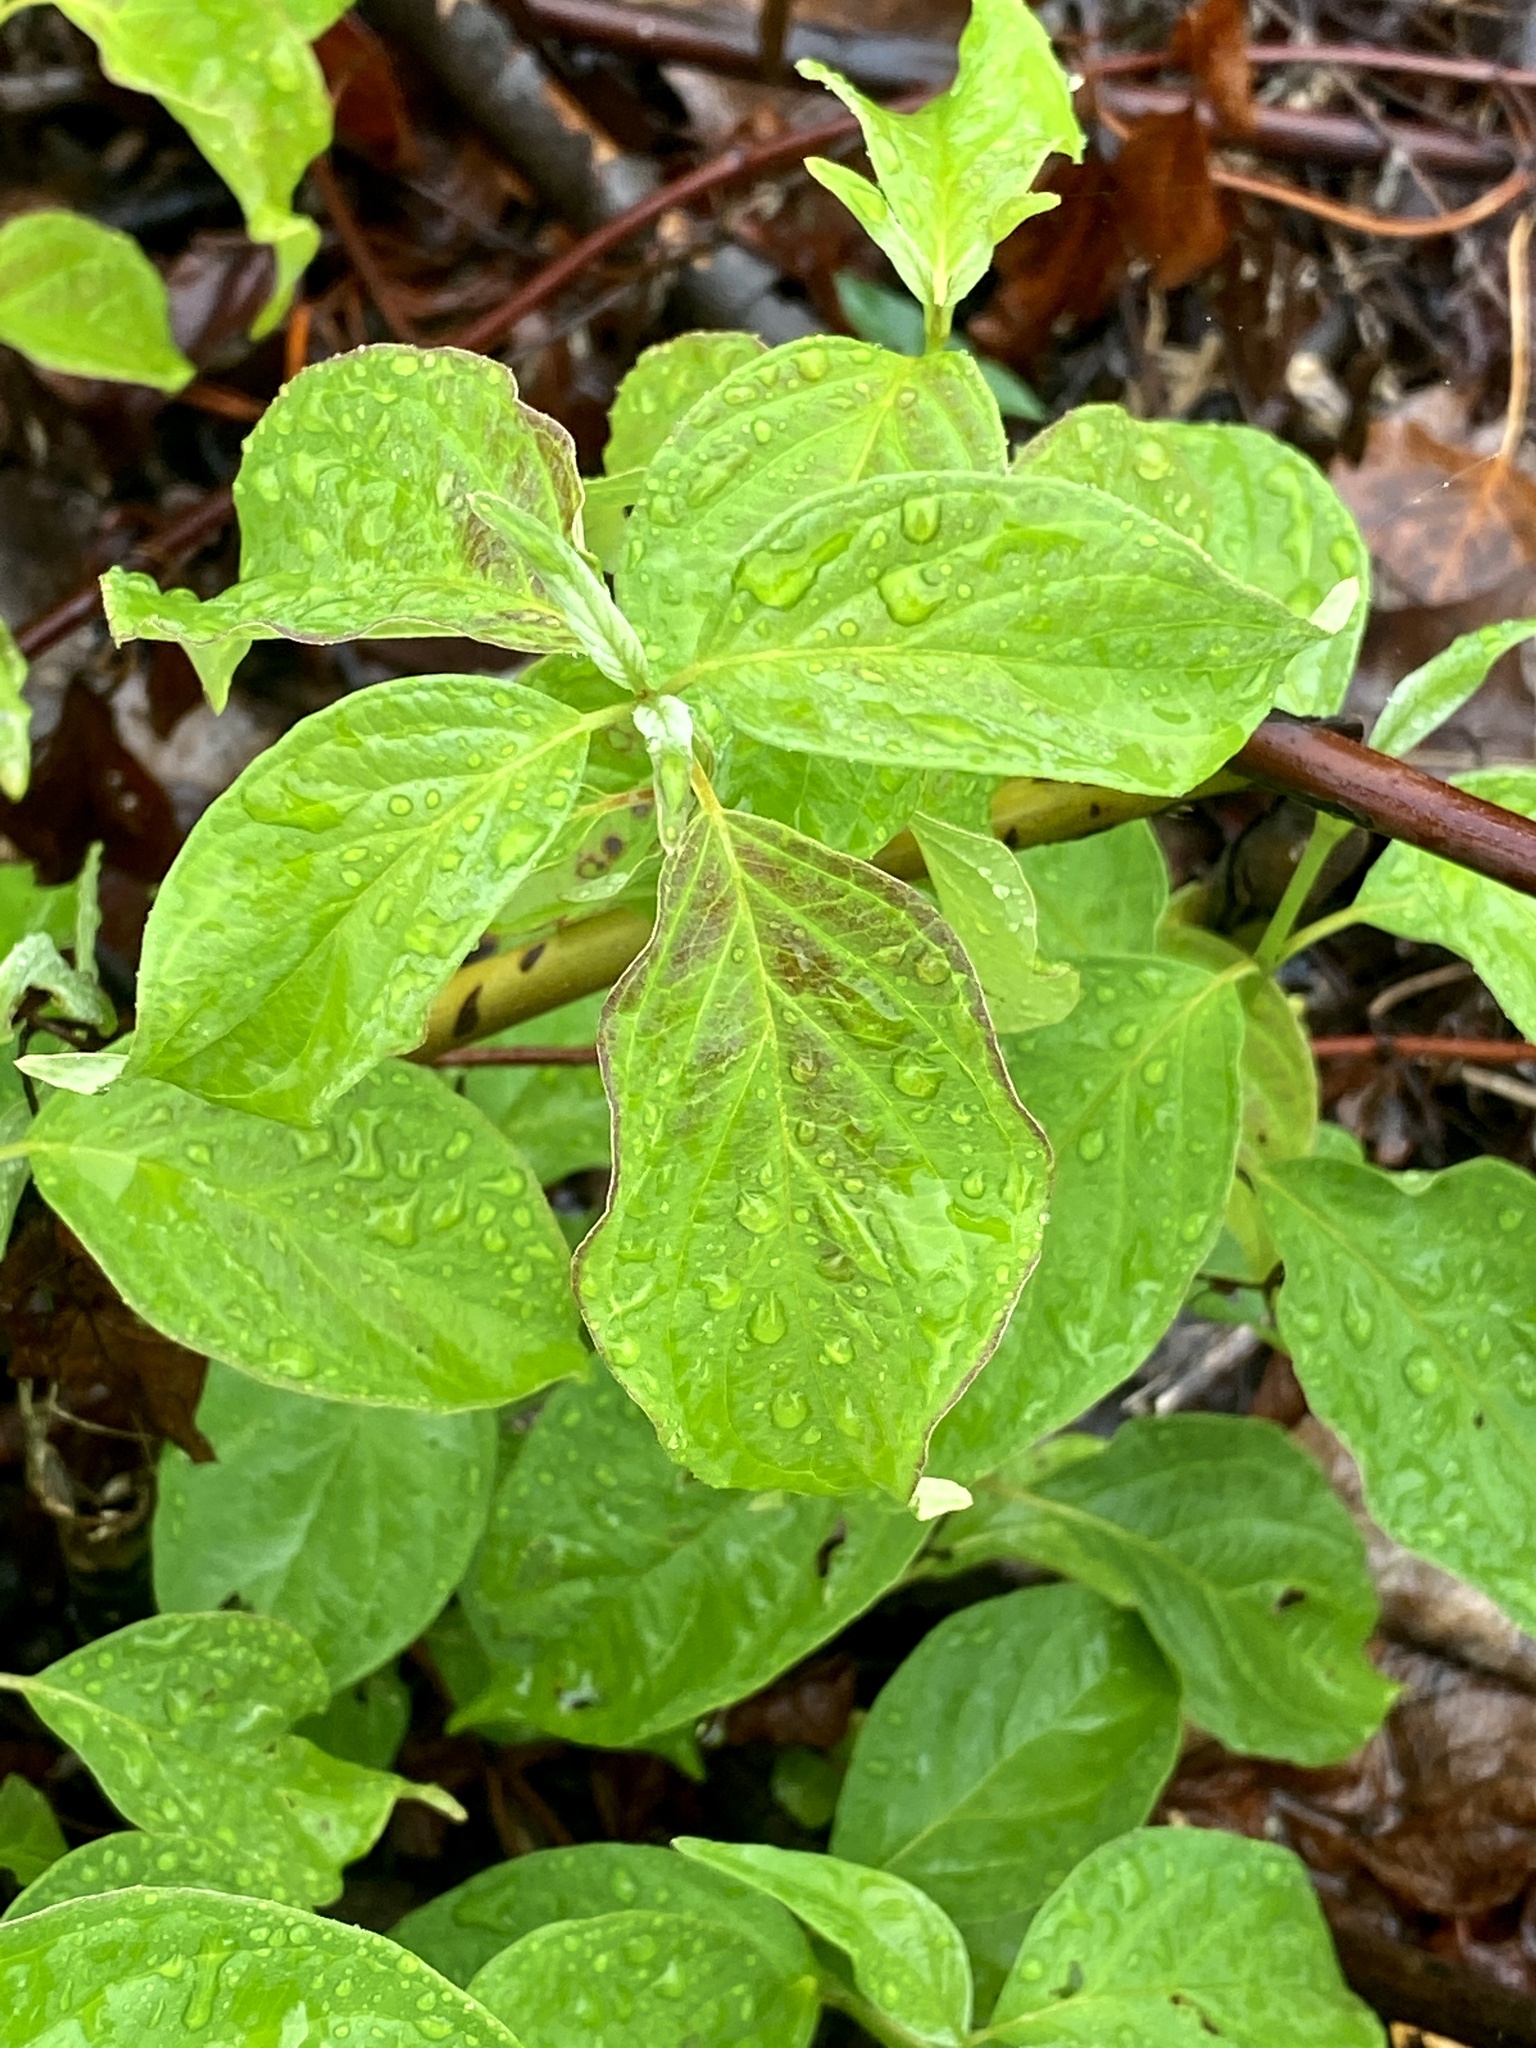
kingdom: Plantae
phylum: Tracheophyta
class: Magnoliopsida
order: Cornales
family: Cornaceae
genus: Cornus
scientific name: Cornus amomum
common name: Silky dogwood
